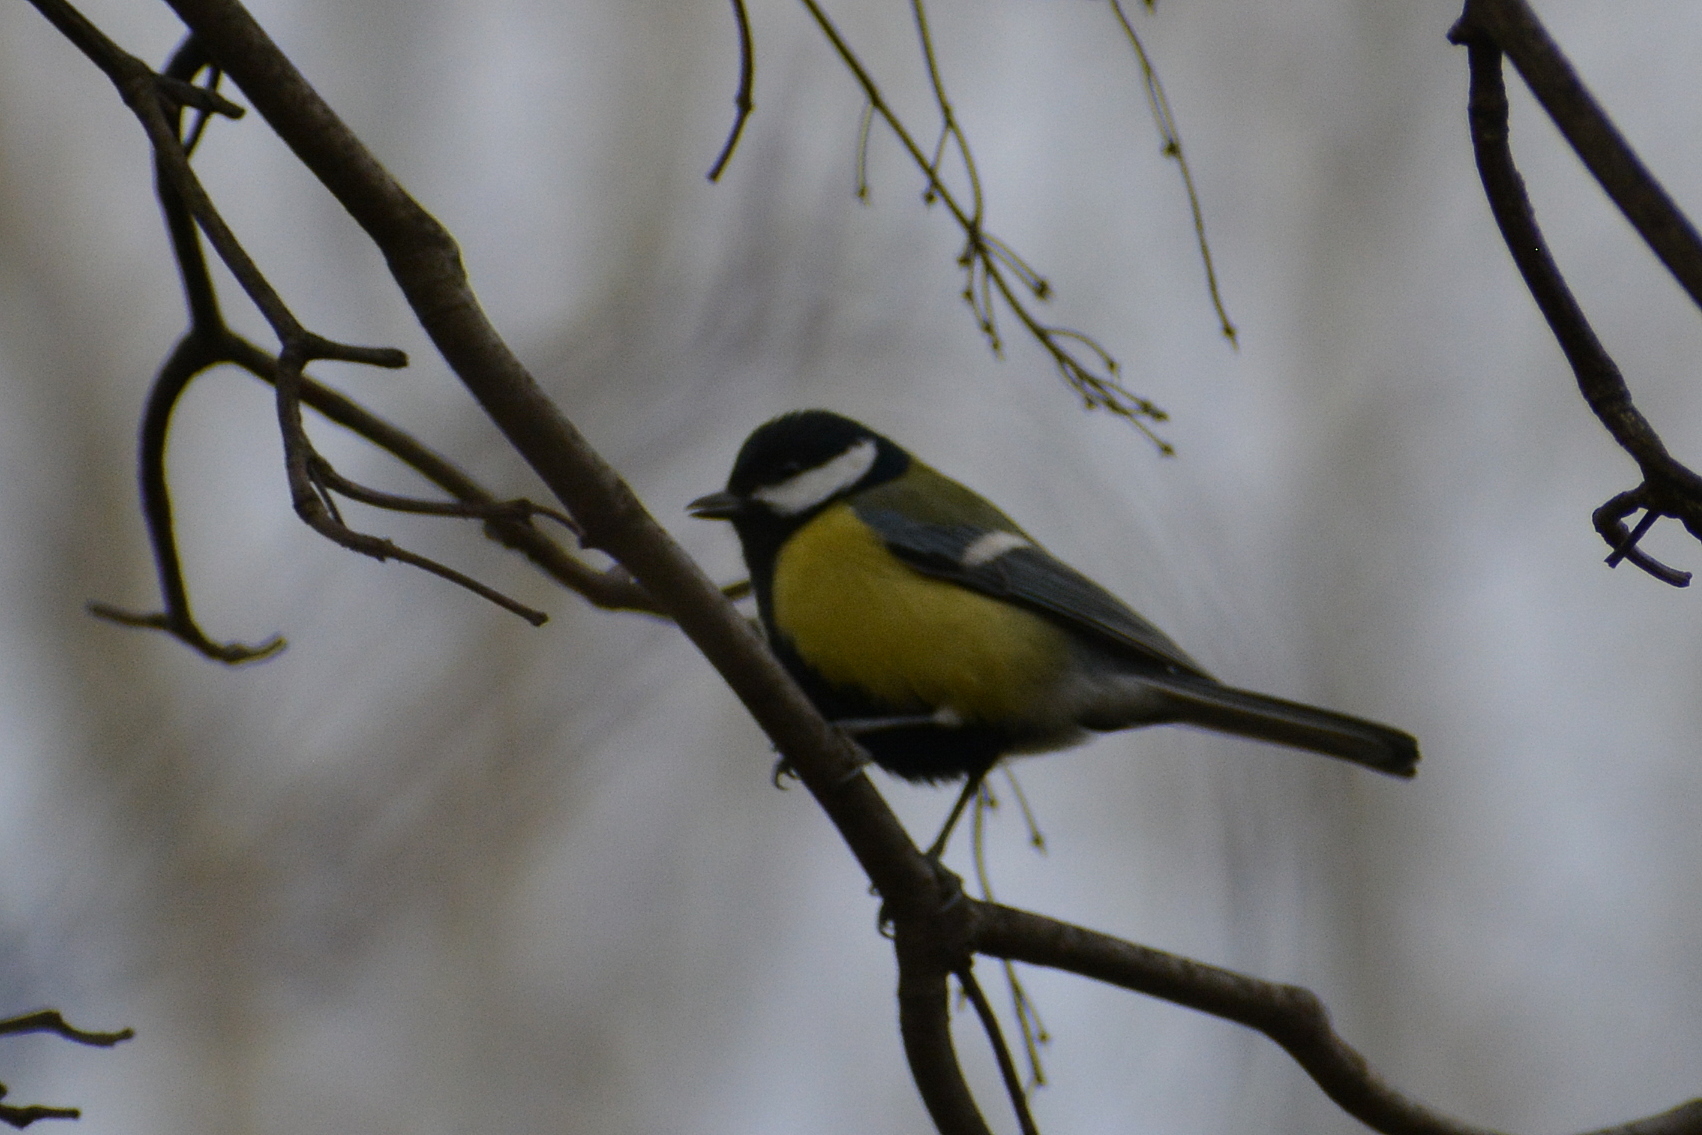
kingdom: Animalia
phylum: Chordata
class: Aves
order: Passeriformes
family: Paridae
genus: Parus
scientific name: Parus major
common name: Great tit
